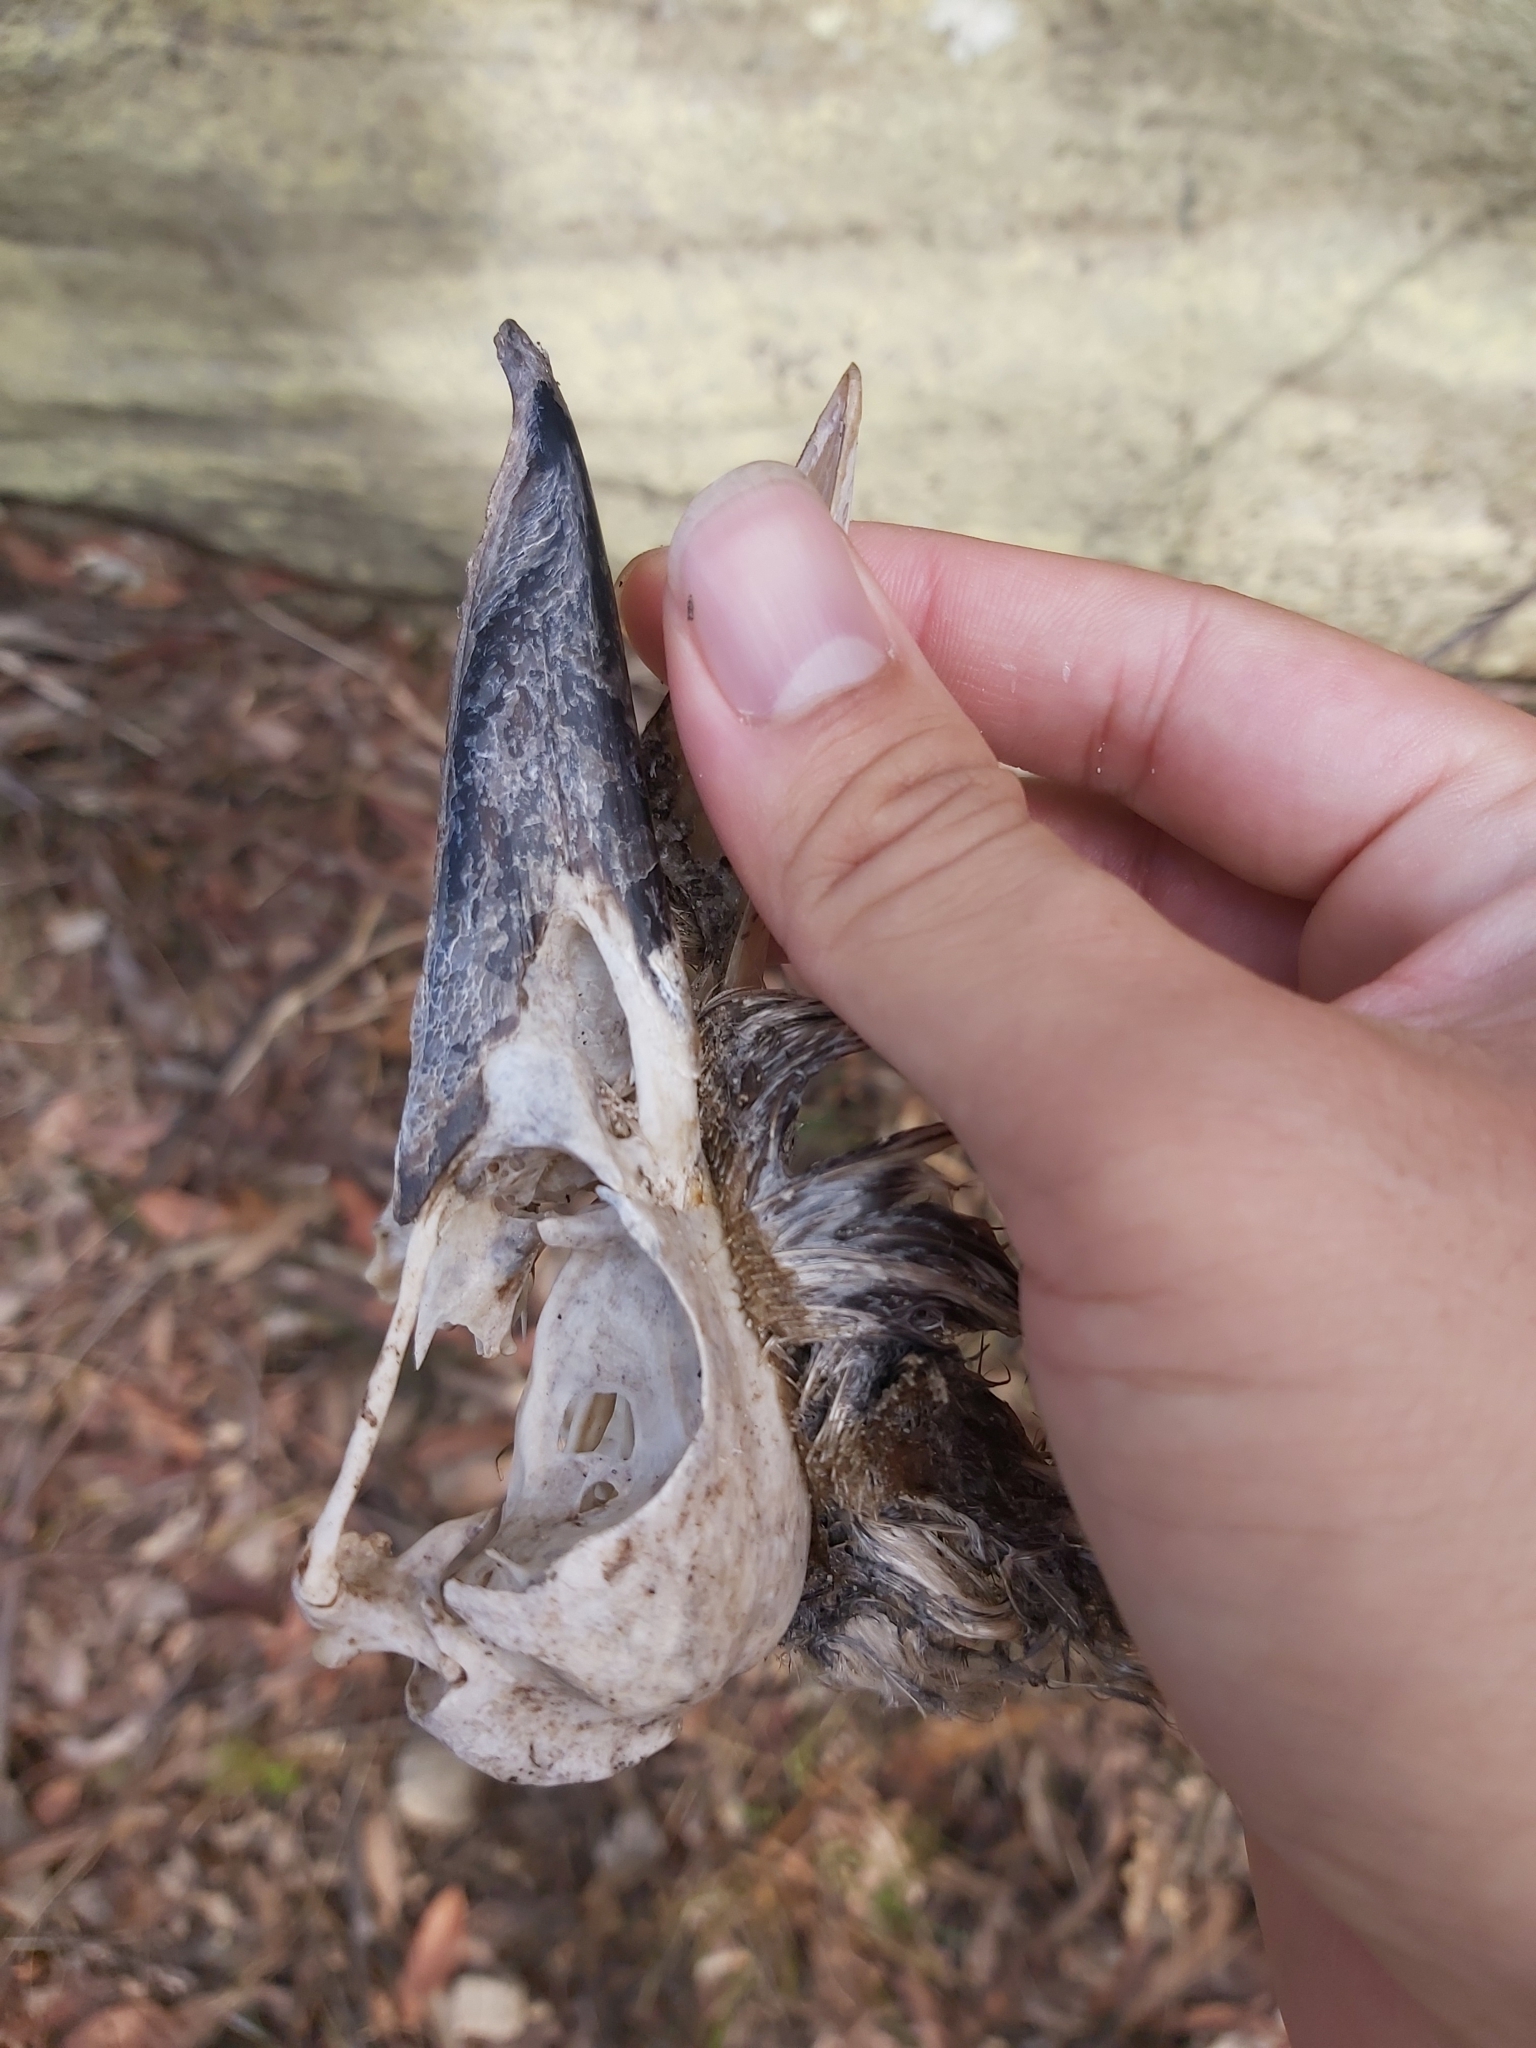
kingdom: Animalia
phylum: Chordata
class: Aves
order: Coraciiformes
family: Alcedinidae
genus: Dacelo
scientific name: Dacelo novaeguineae
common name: Laughing kookaburra
